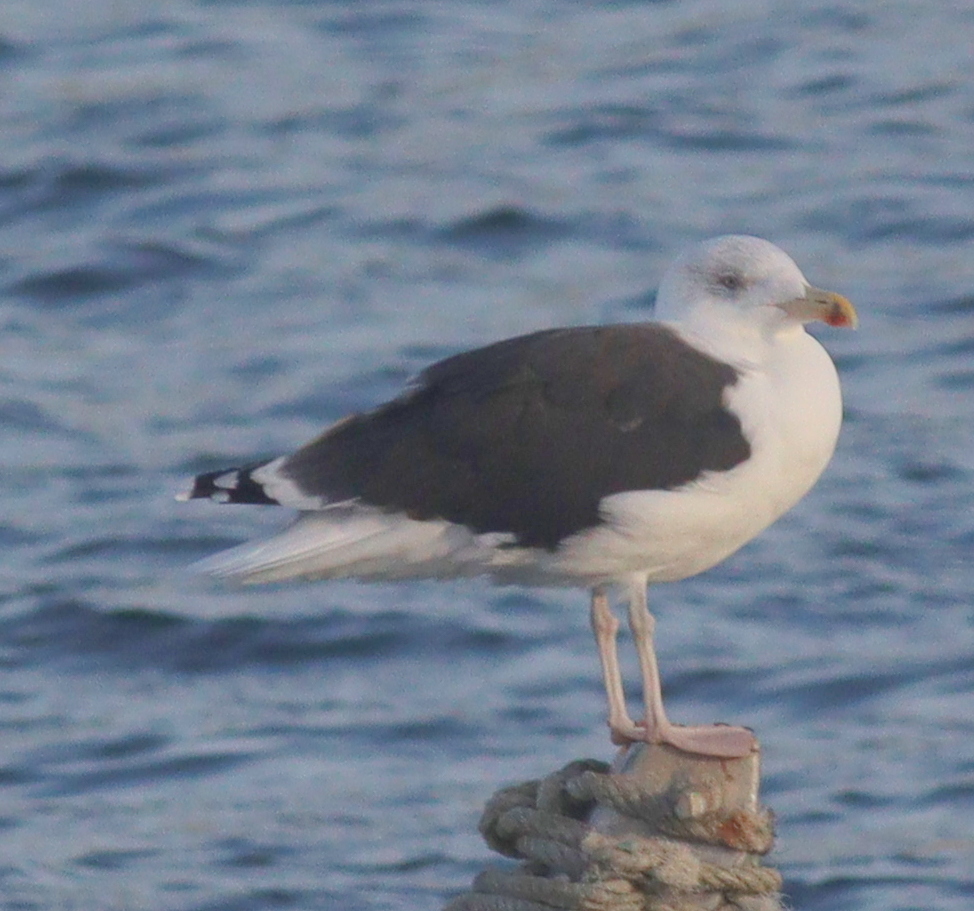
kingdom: Animalia
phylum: Chordata
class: Aves
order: Charadriiformes
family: Laridae
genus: Larus
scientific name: Larus marinus
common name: Great black-backed gull
